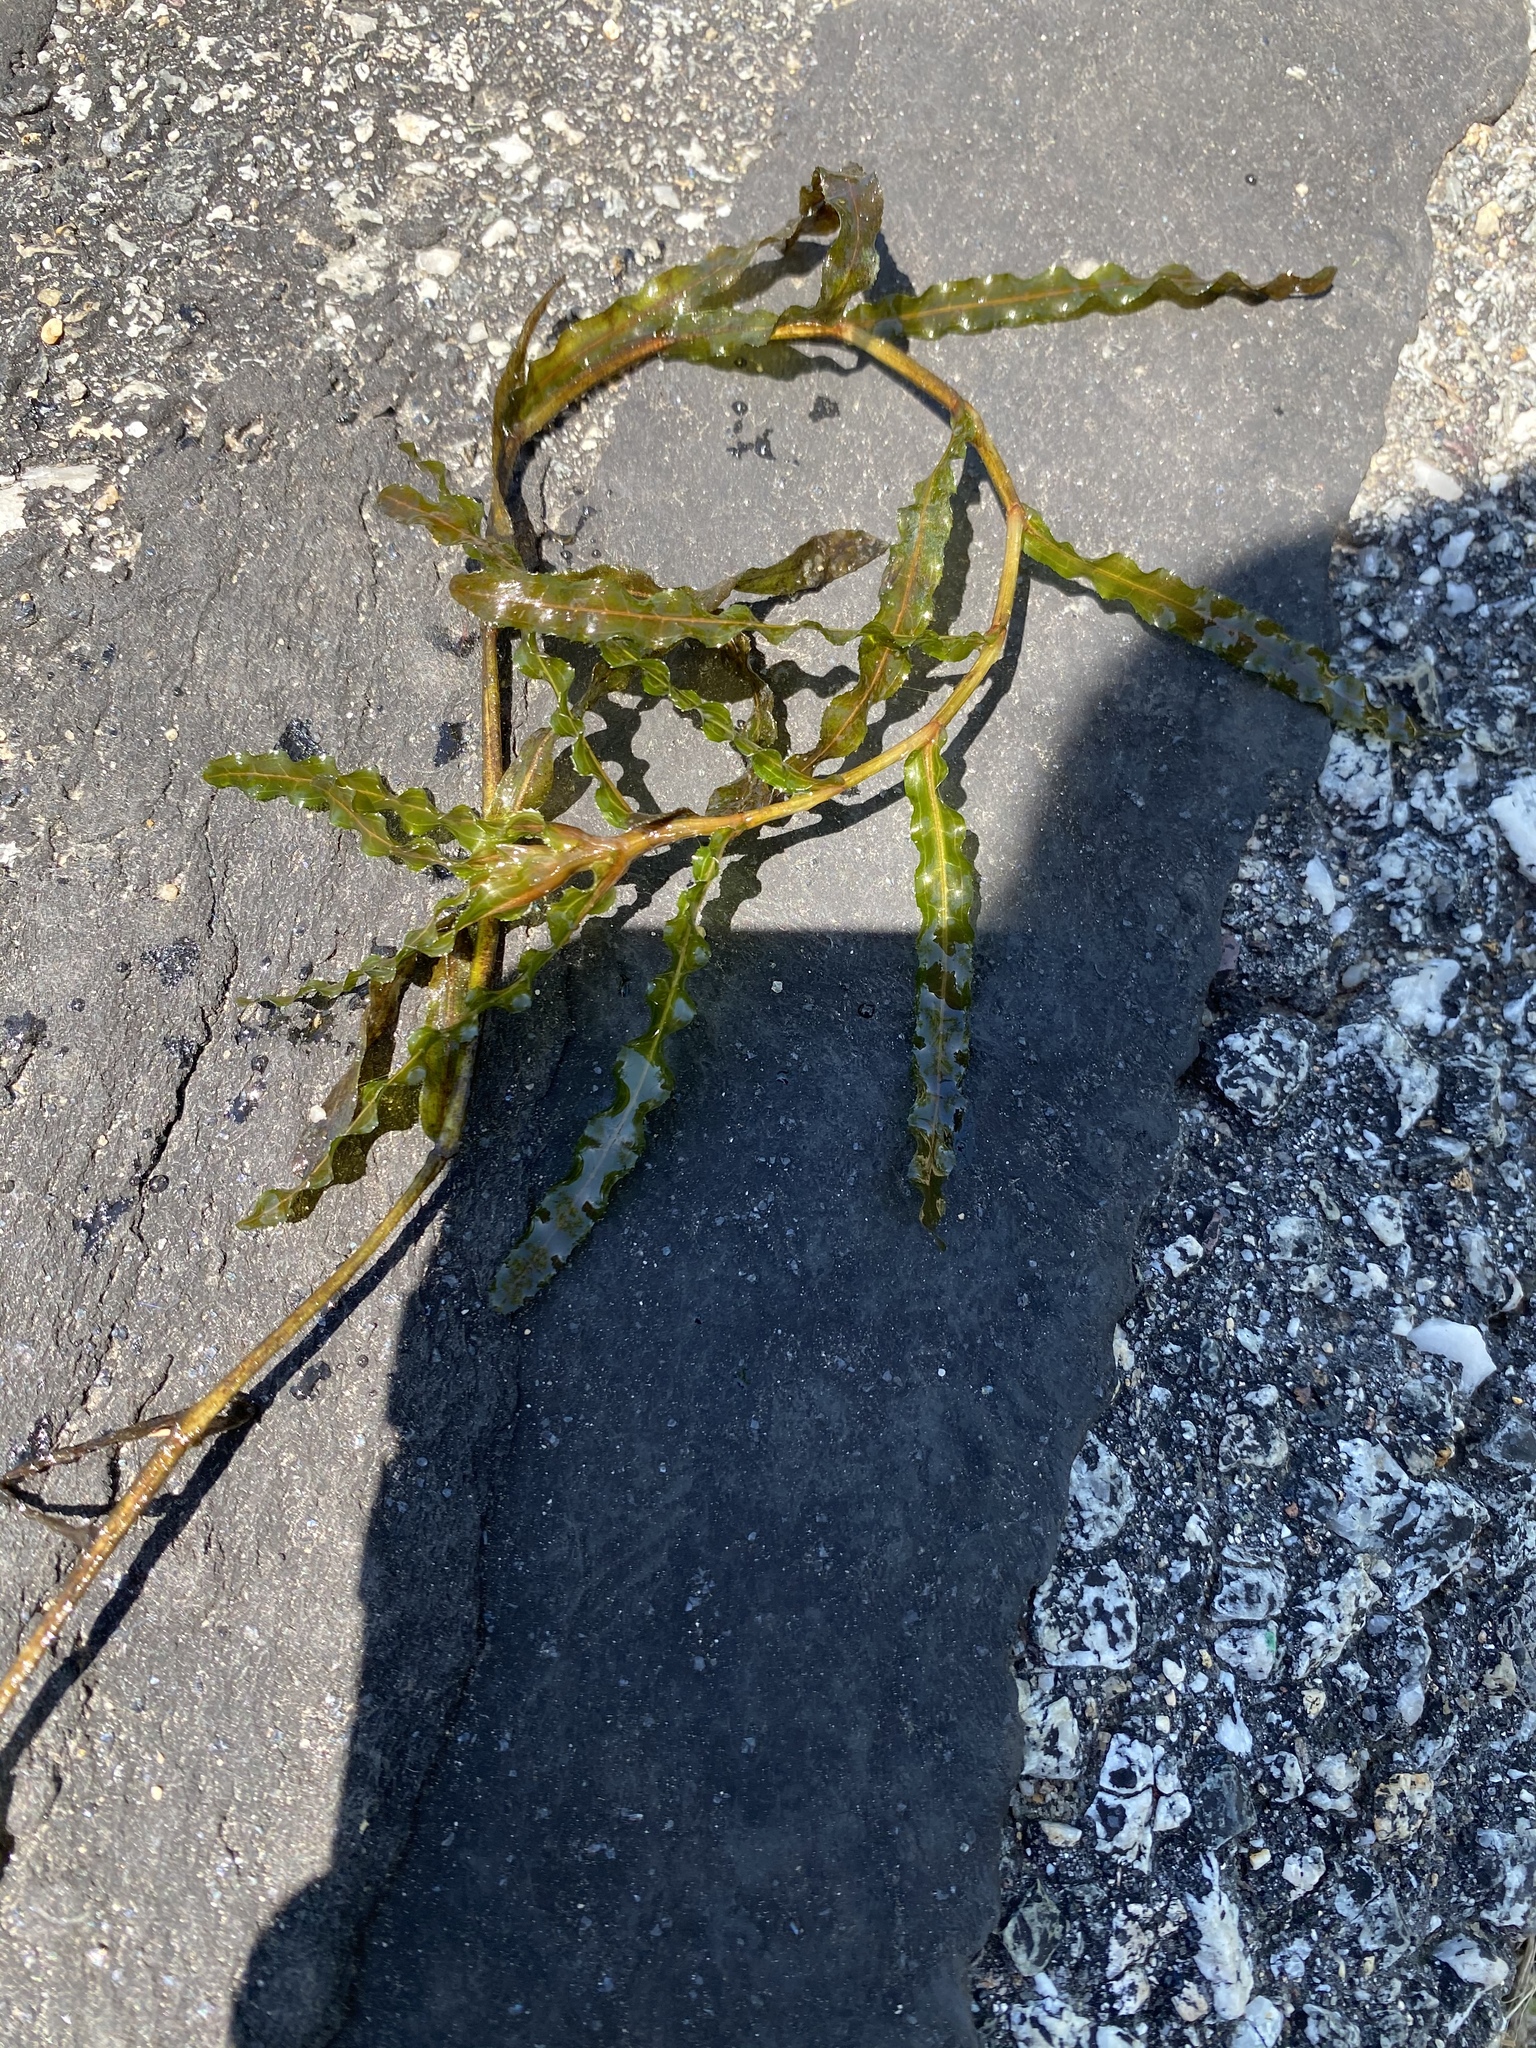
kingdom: Plantae
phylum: Tracheophyta
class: Liliopsida
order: Alismatales
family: Potamogetonaceae
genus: Potamogeton
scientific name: Potamogeton crispus
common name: Curled pondweed
